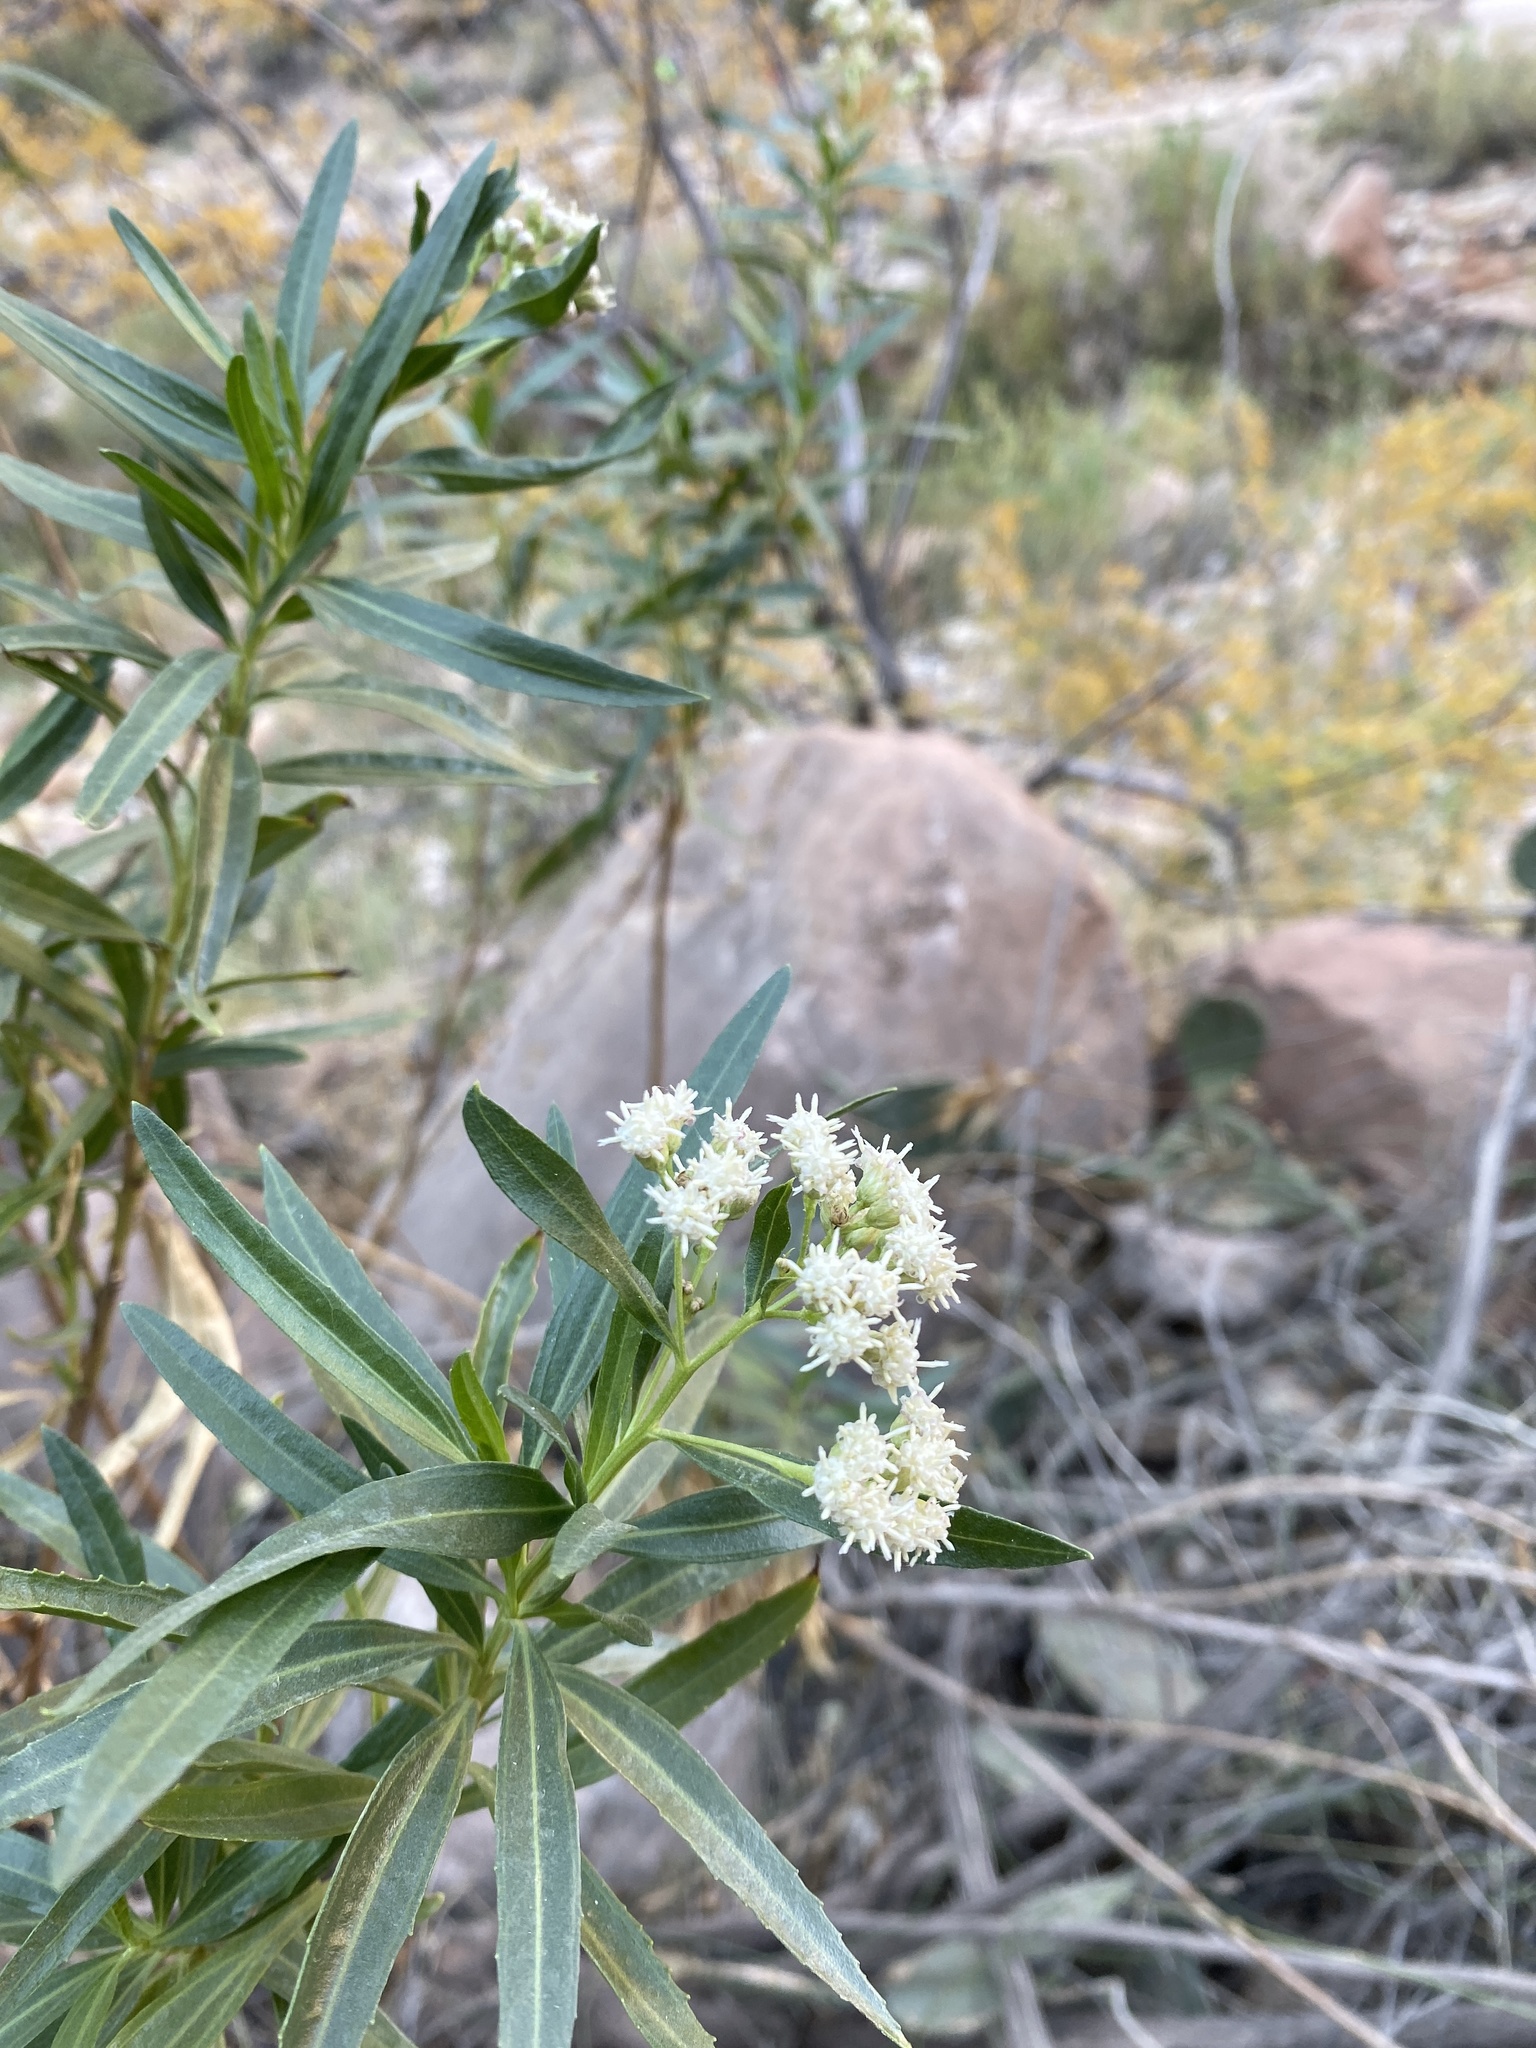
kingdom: Plantae
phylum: Tracheophyta
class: Magnoliopsida
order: Asterales
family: Asteraceae
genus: Baccharis
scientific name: Baccharis salicifolia
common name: Sticky baccharis
